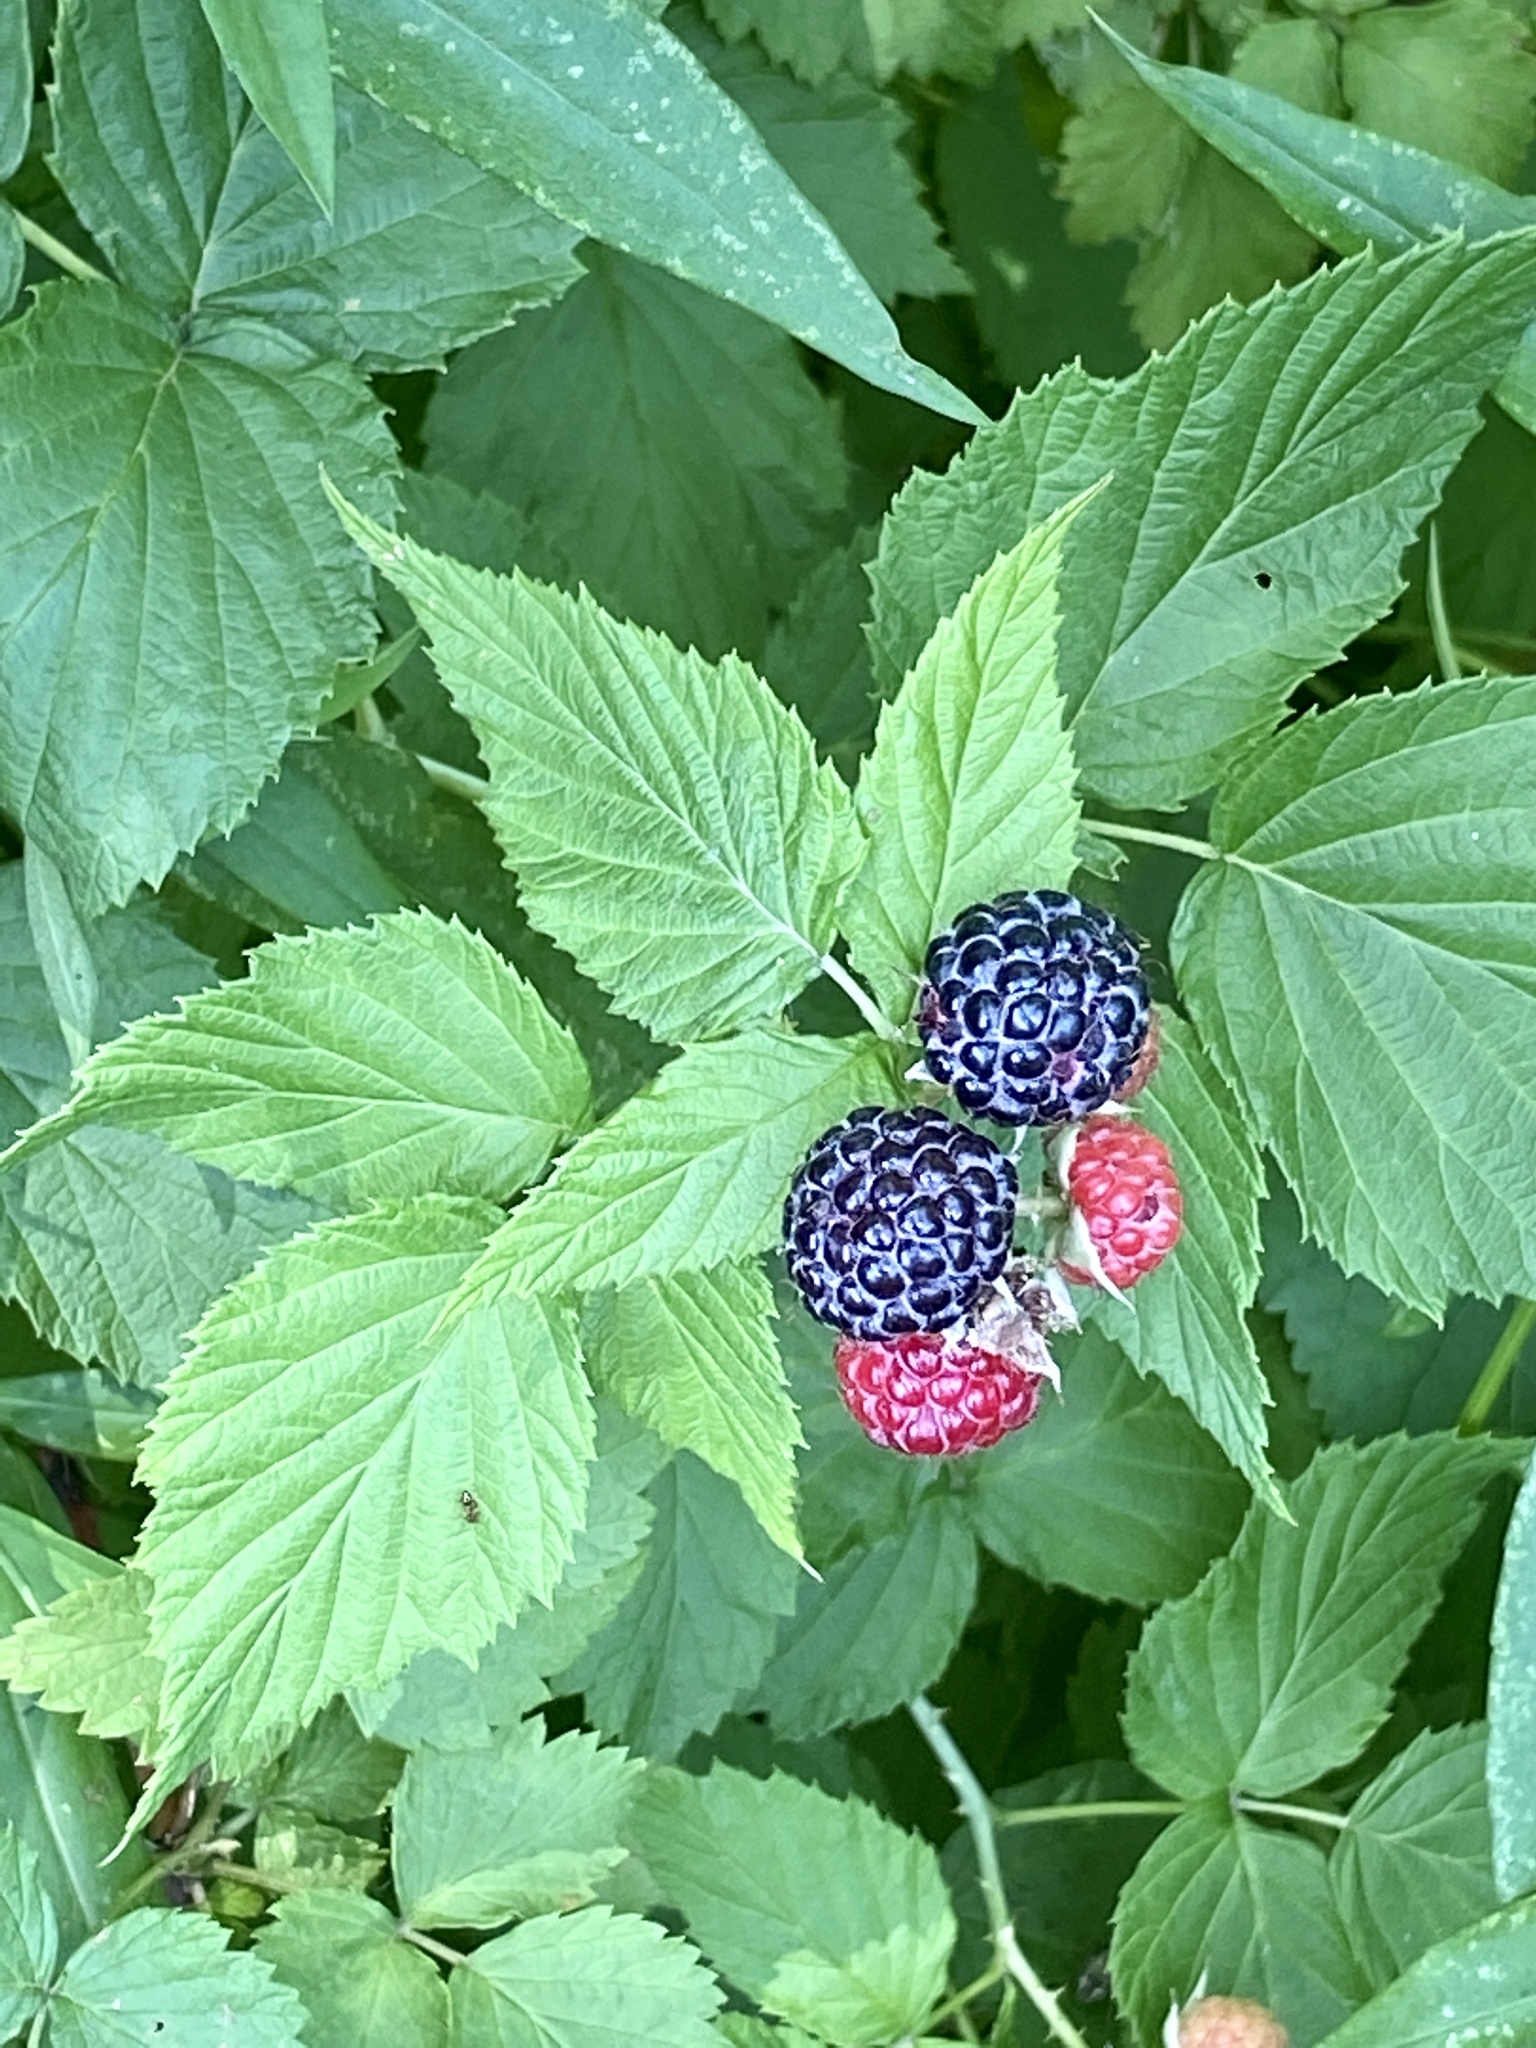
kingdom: Plantae
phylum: Tracheophyta
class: Magnoliopsida
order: Rosales
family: Rosaceae
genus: Rubus
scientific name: Rubus occidentalis
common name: Black raspberry
